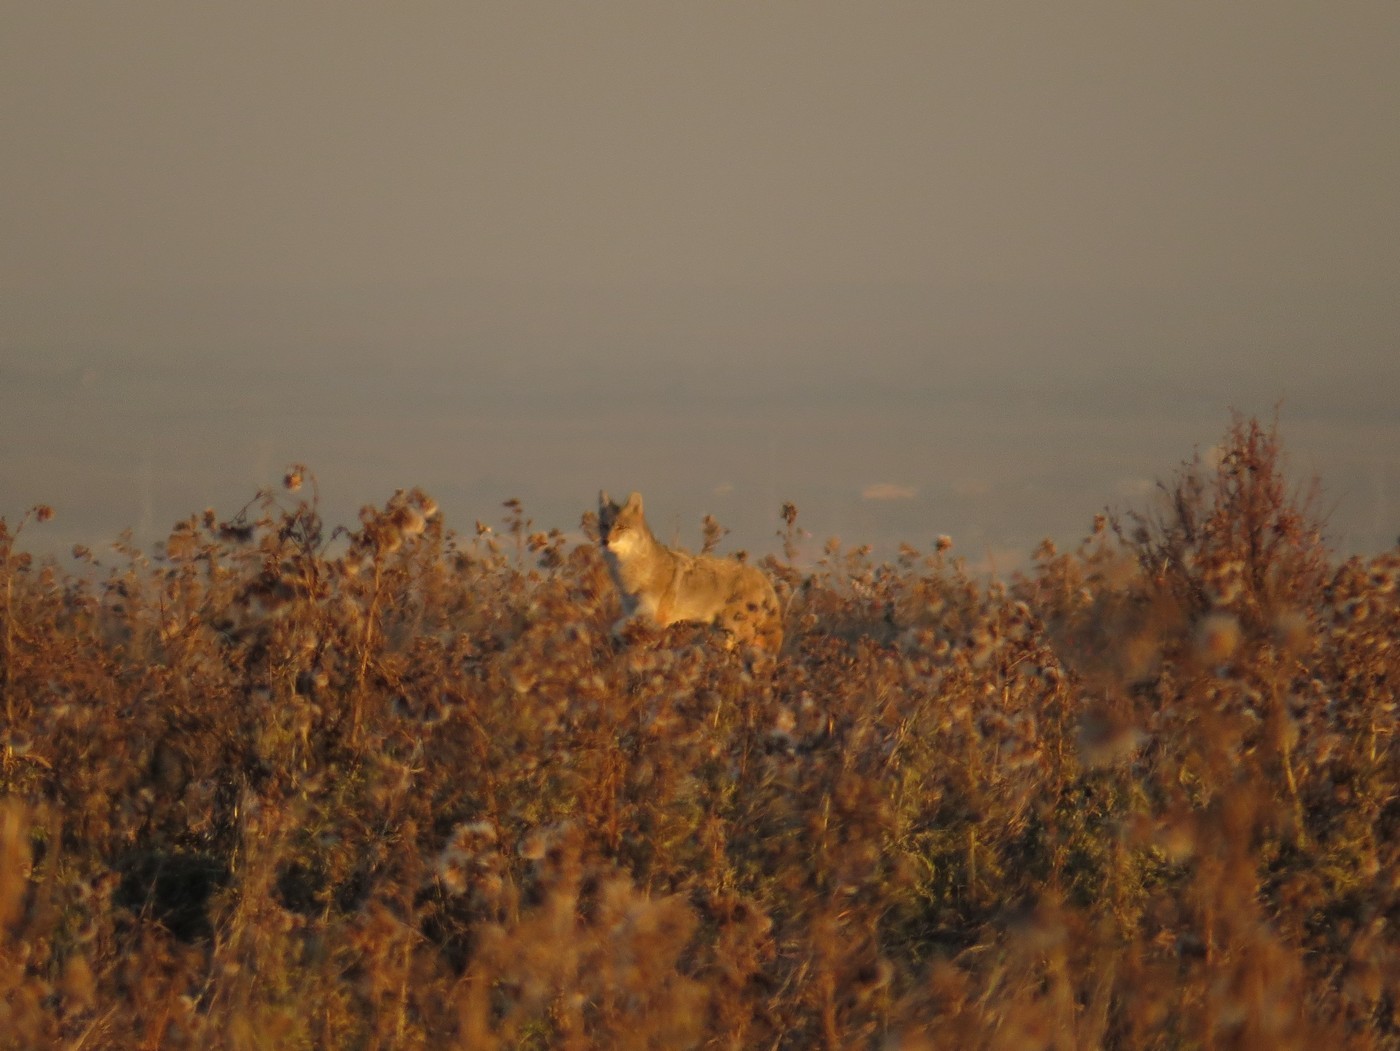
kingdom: Animalia
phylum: Chordata
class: Mammalia
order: Carnivora
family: Canidae
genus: Canis
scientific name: Canis latrans
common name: Coyote
